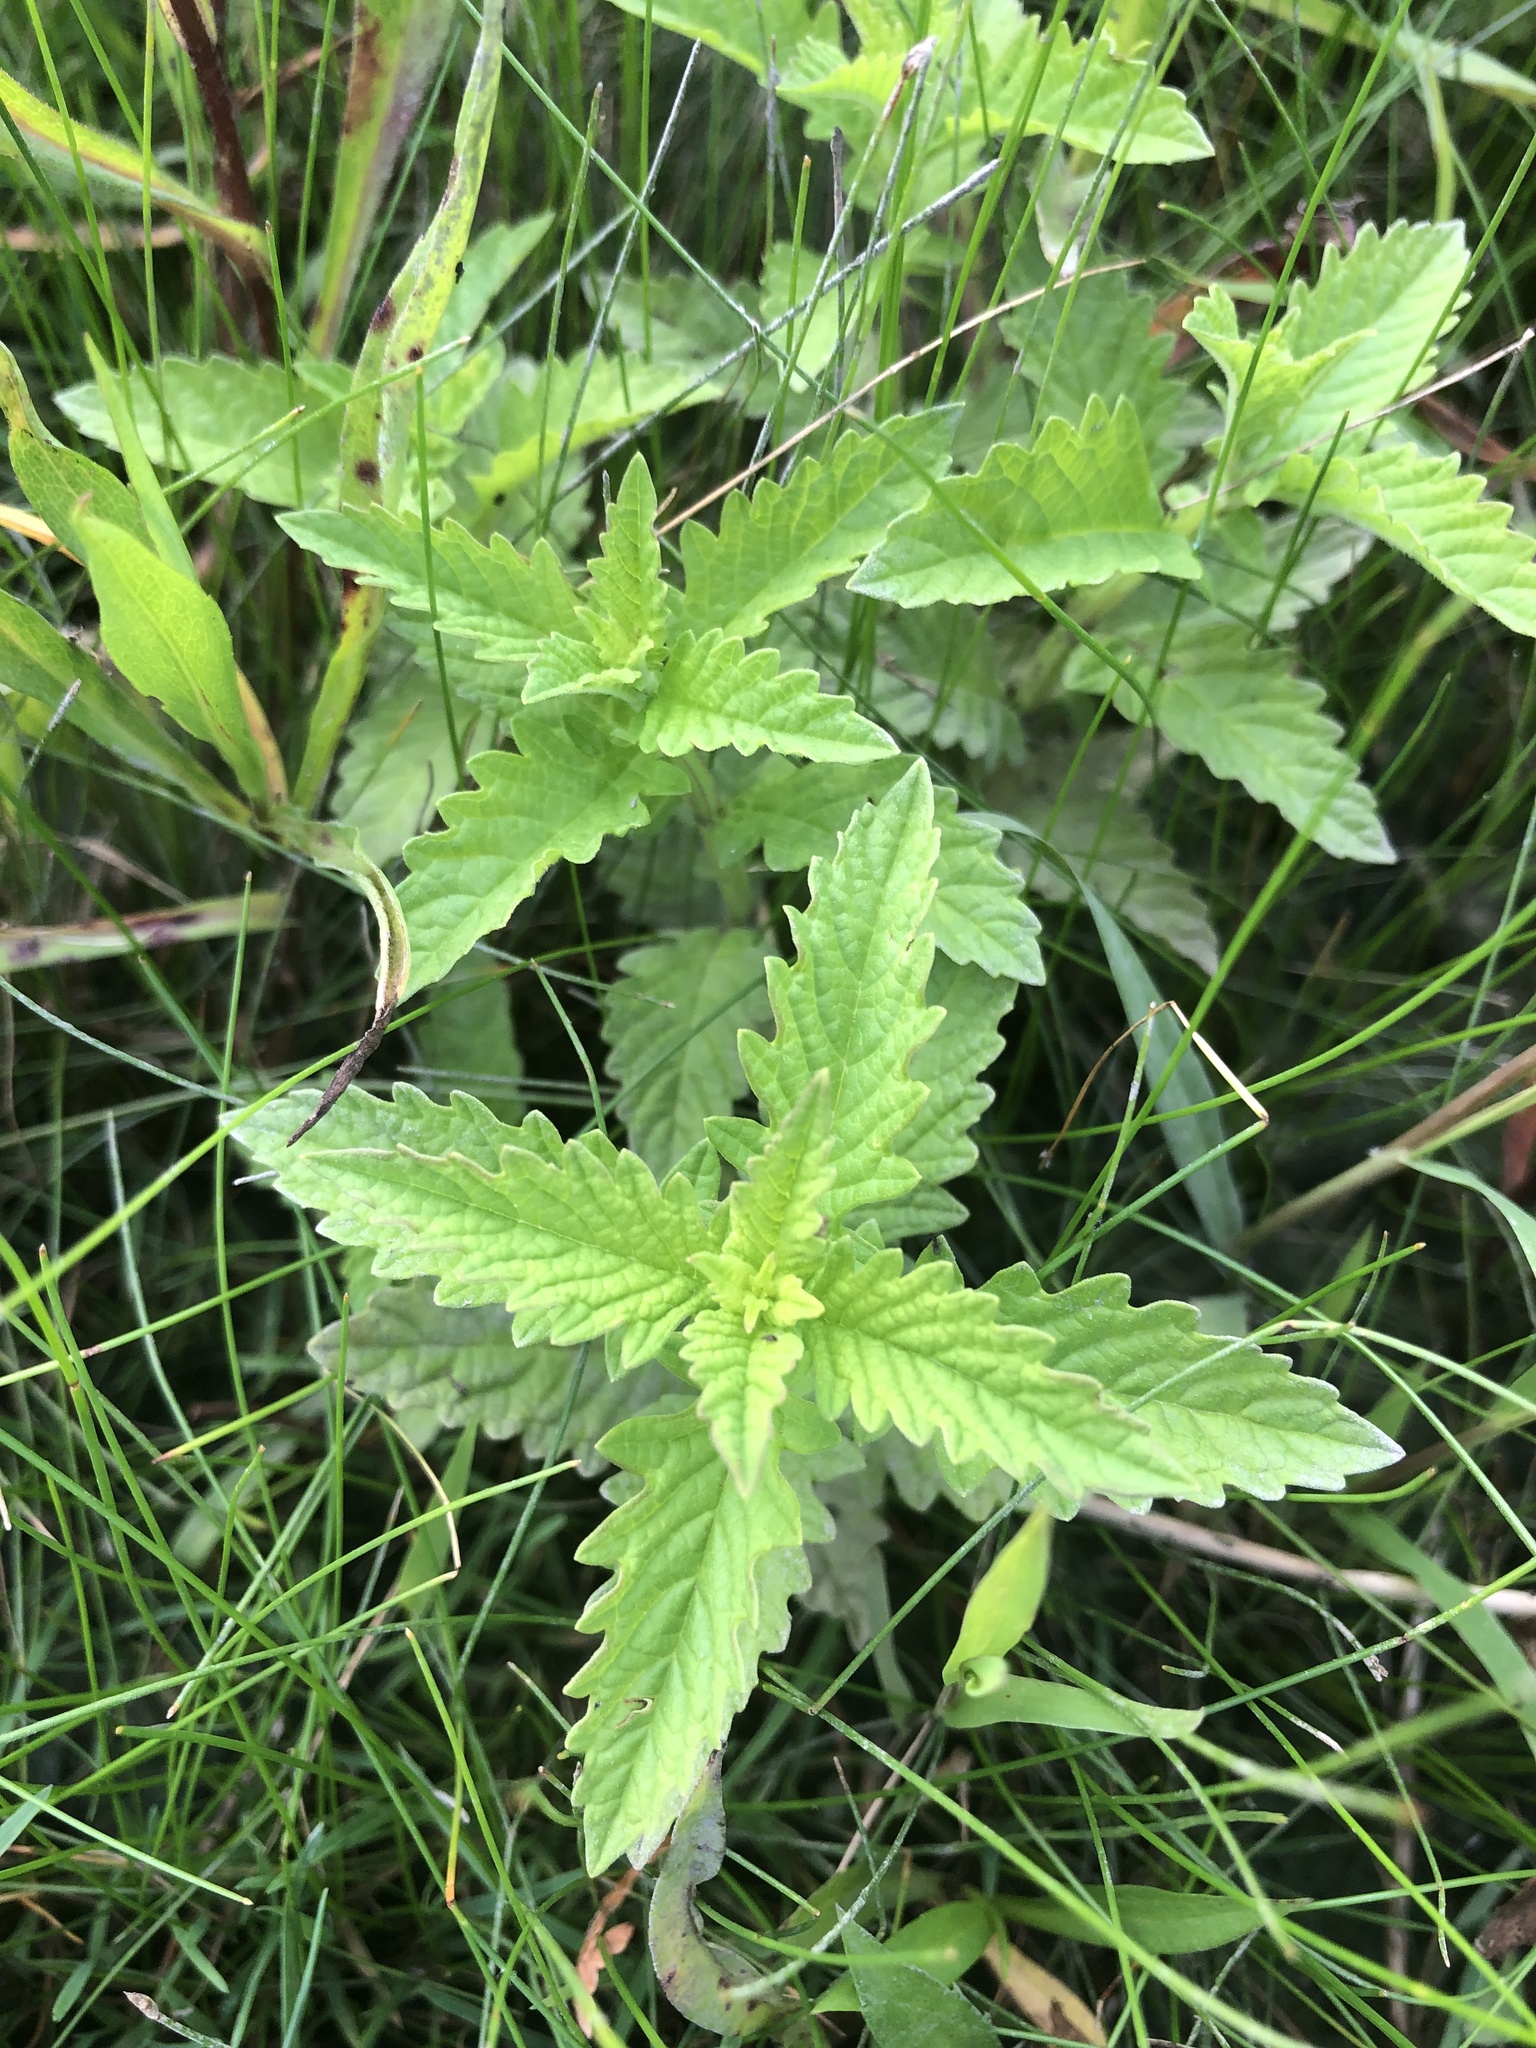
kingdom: Plantae
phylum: Tracheophyta
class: Magnoliopsida
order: Lamiales
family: Lamiaceae
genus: Lycopus
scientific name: Lycopus europaeus
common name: European bugleweed
